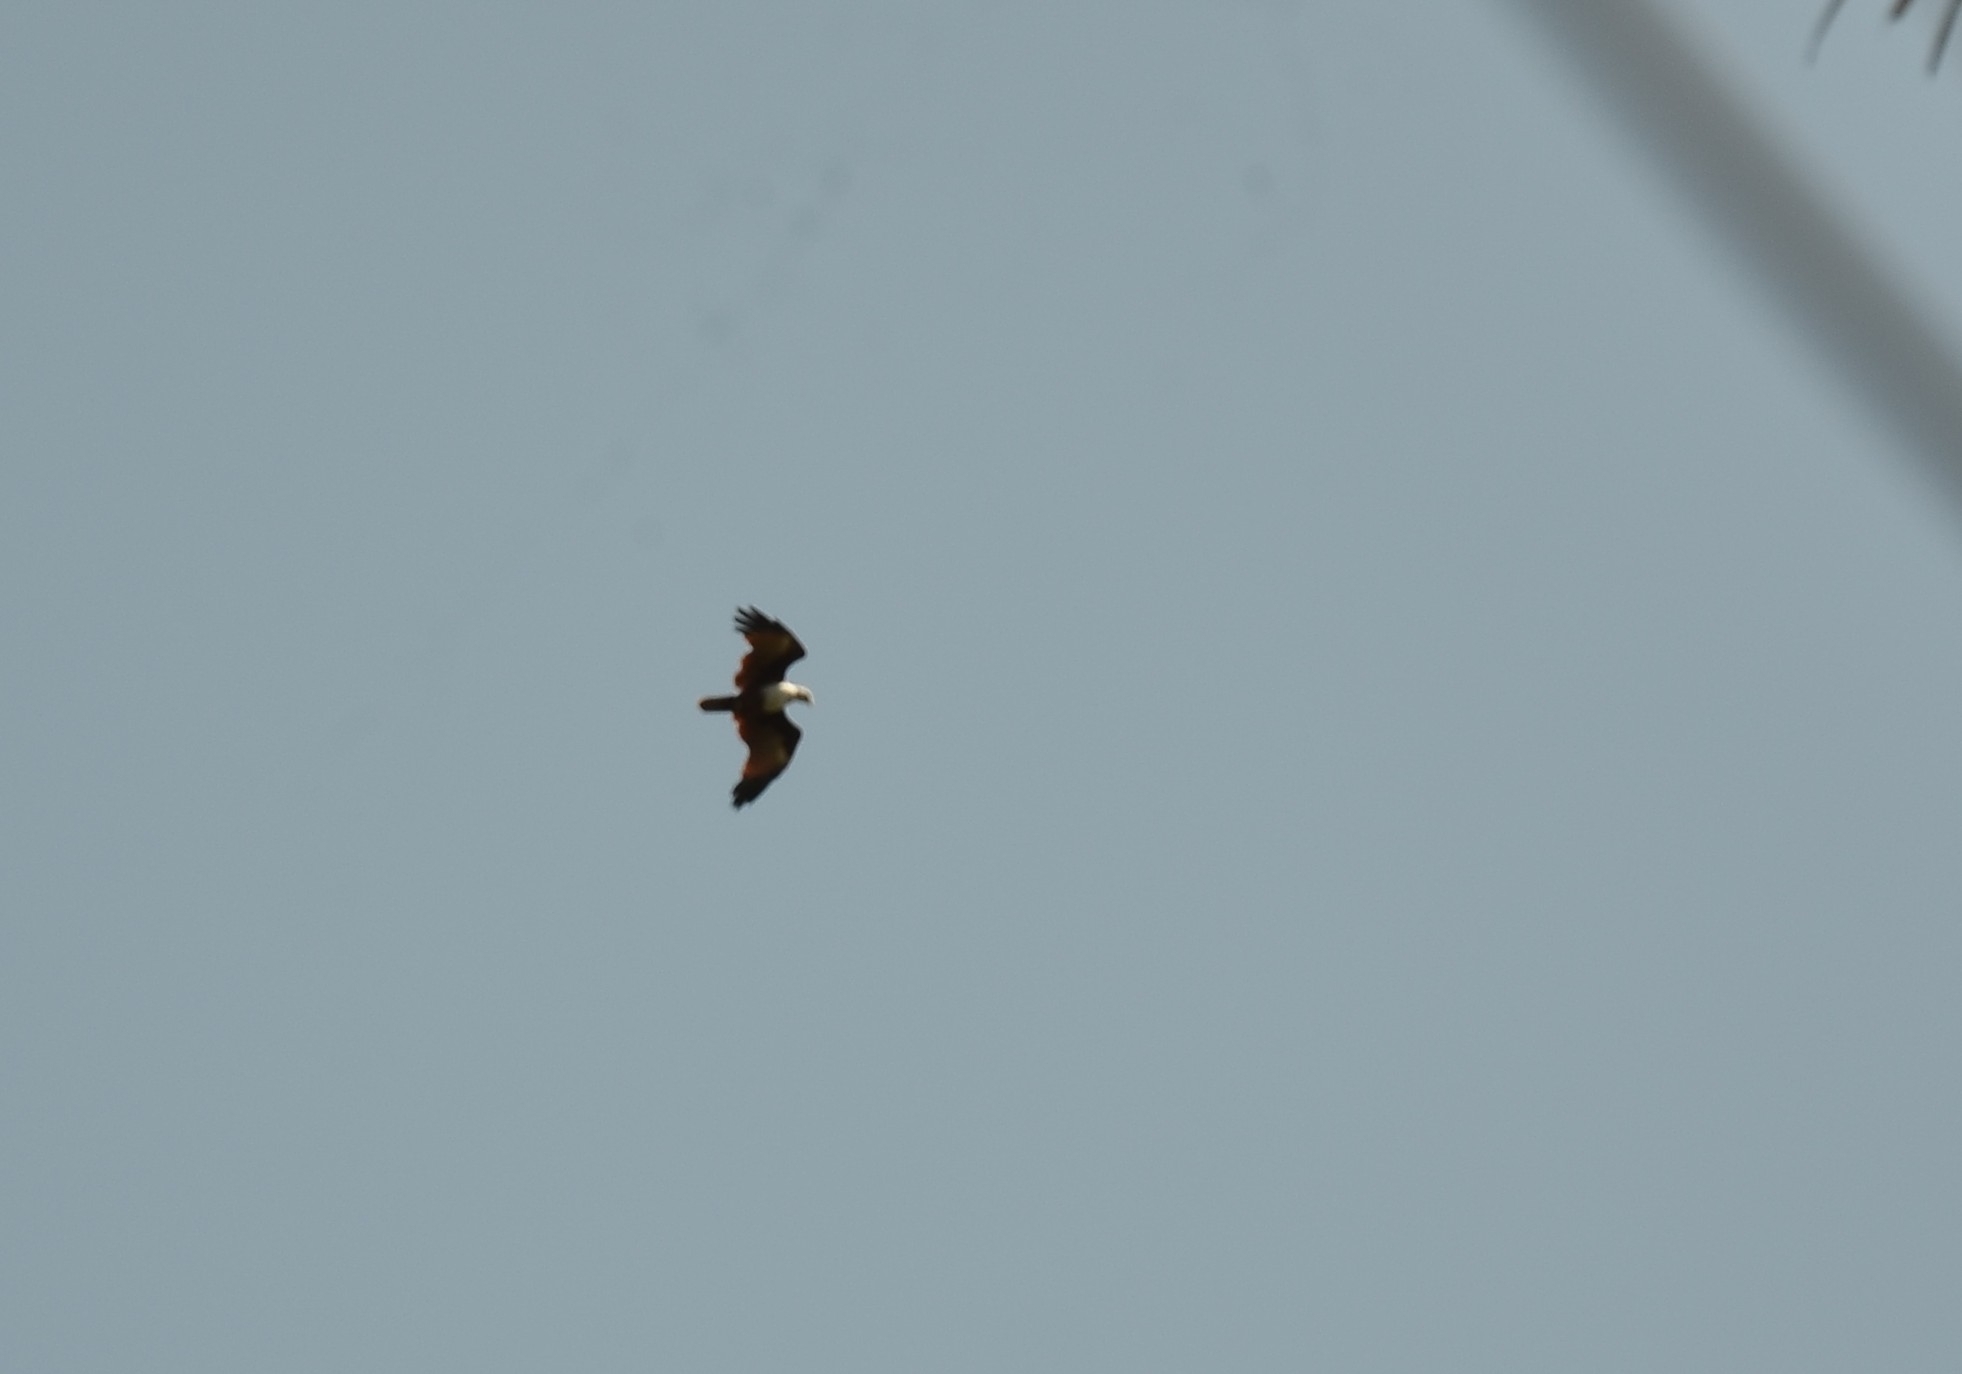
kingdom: Animalia
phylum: Chordata
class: Aves
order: Accipitriformes
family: Accipitridae
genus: Haliastur
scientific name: Haliastur indus
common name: Brahminy kite
